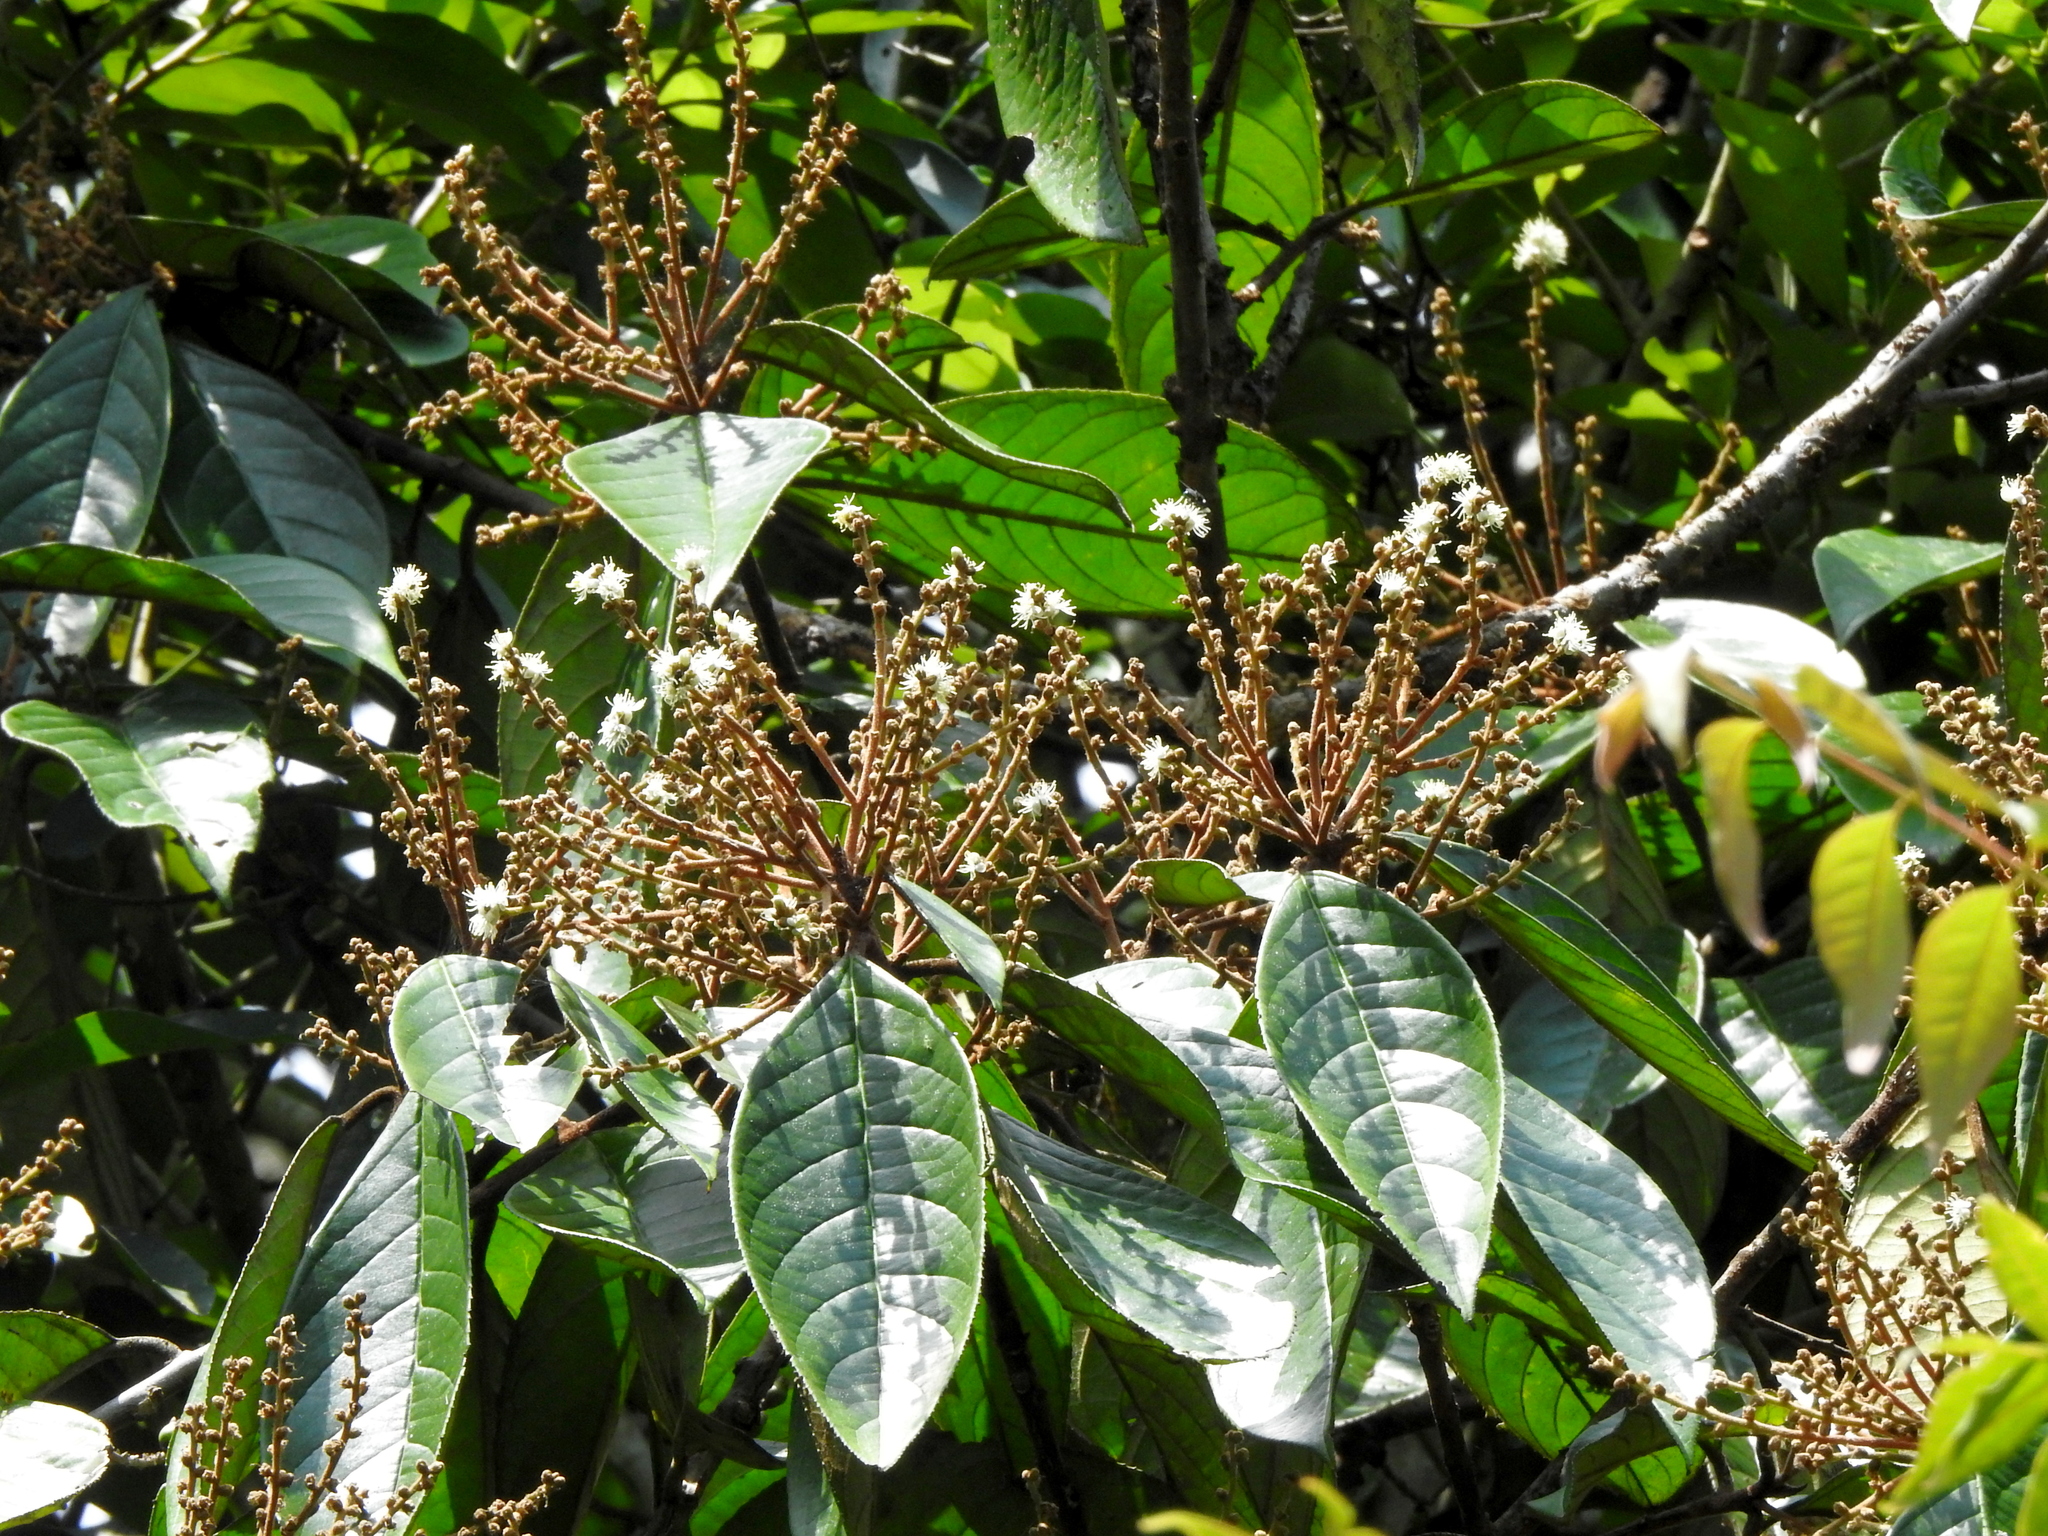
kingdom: Plantae
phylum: Tracheophyta
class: Magnoliopsida
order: Ericales
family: Symplocaceae
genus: Symplocos
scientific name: Symplocos cochinchinensis
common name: Buff hazelwood
